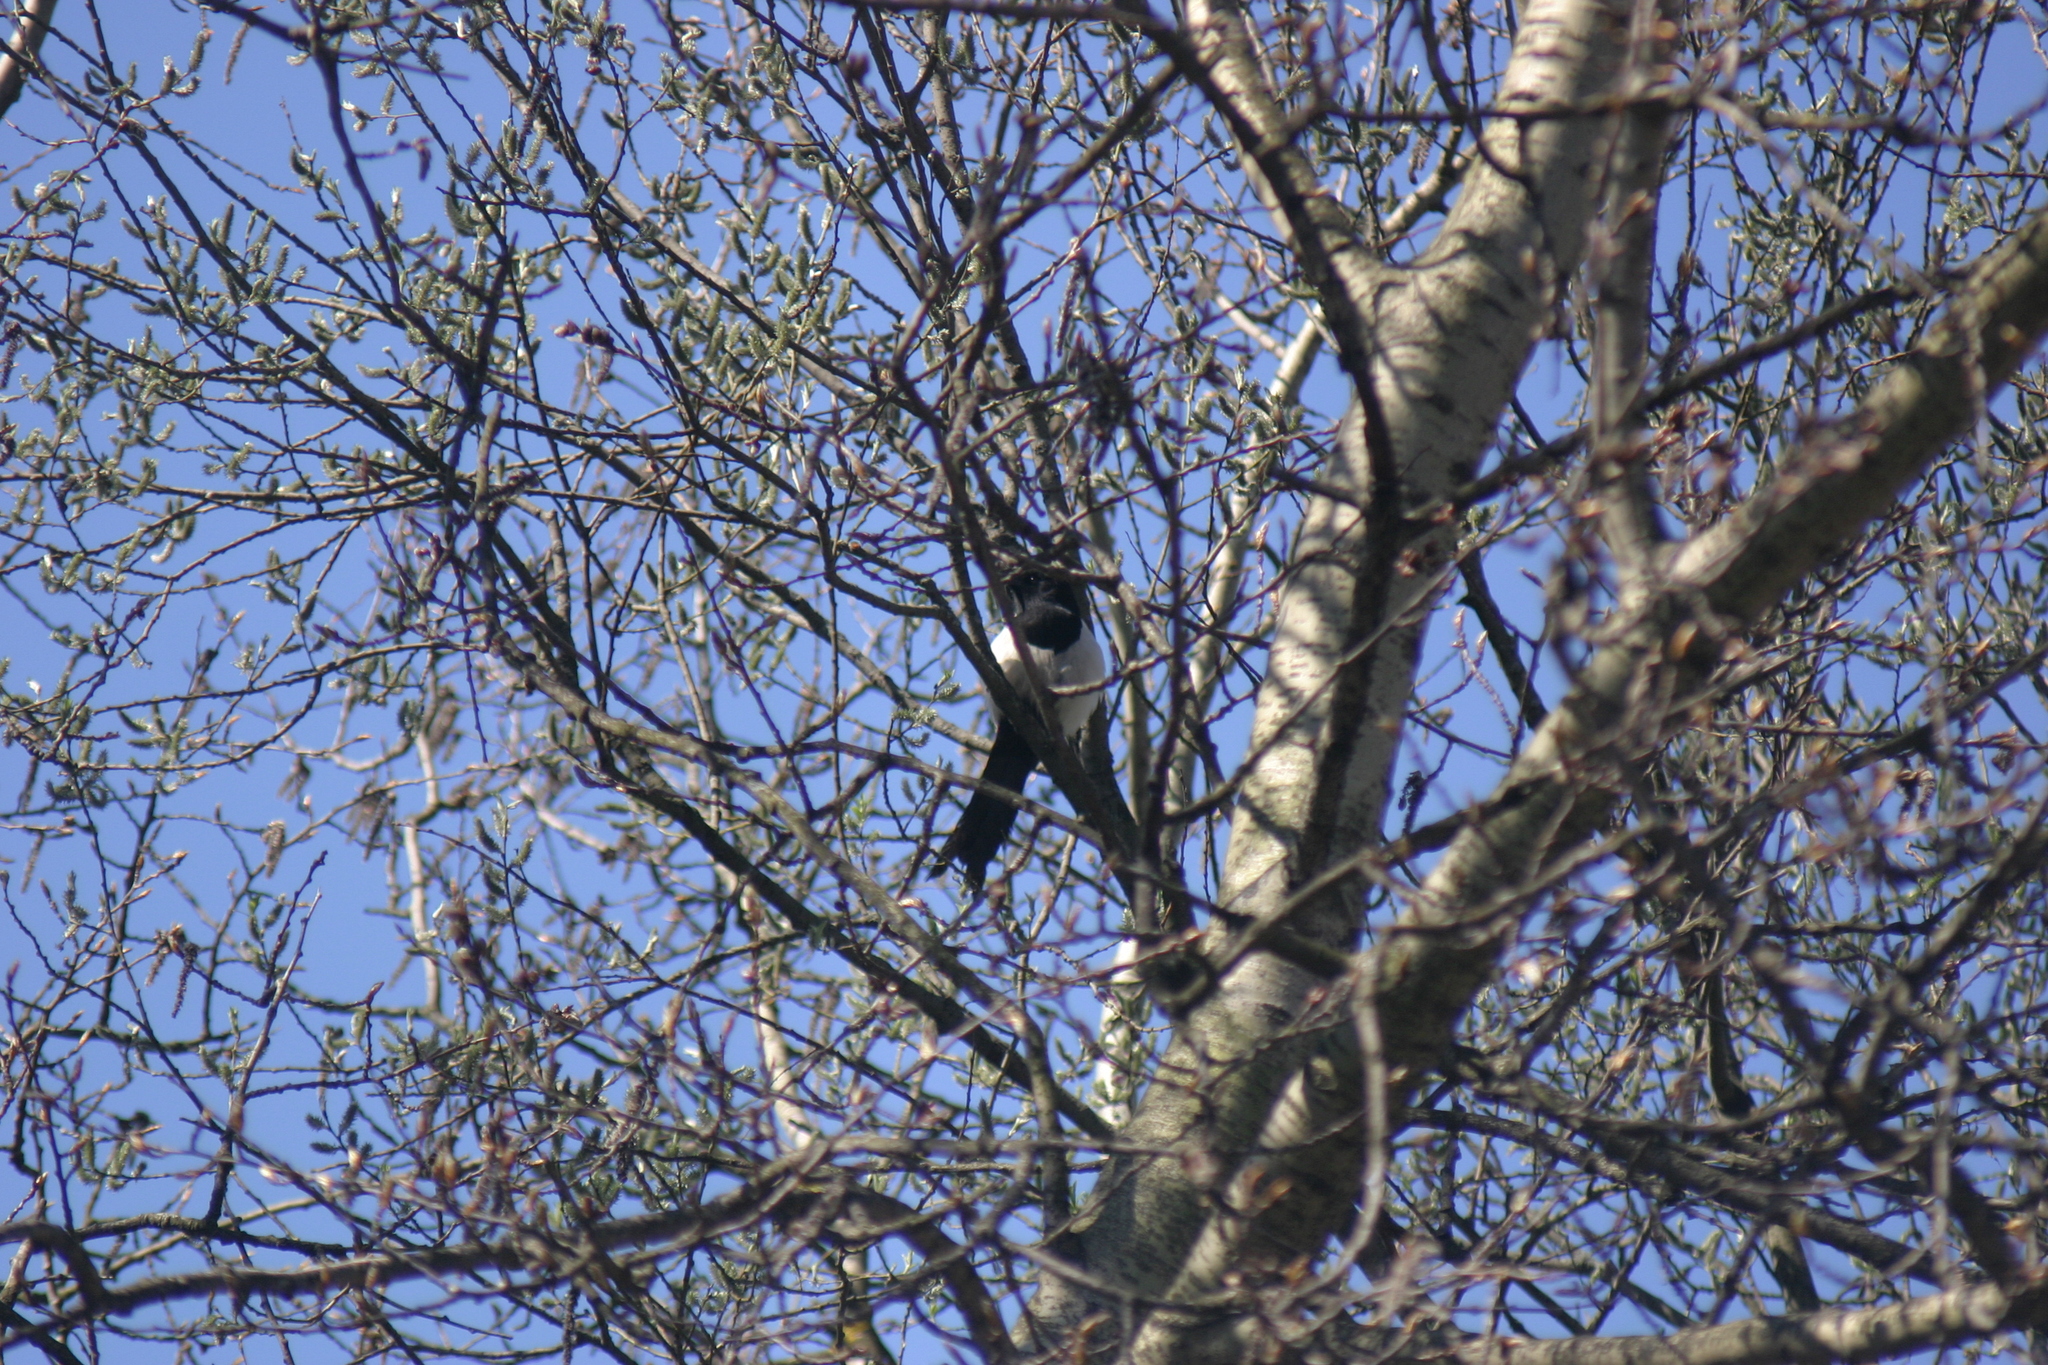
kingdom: Animalia
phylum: Chordata
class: Aves
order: Passeriformes
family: Corvidae
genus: Pica
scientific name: Pica pica
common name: Eurasian magpie
